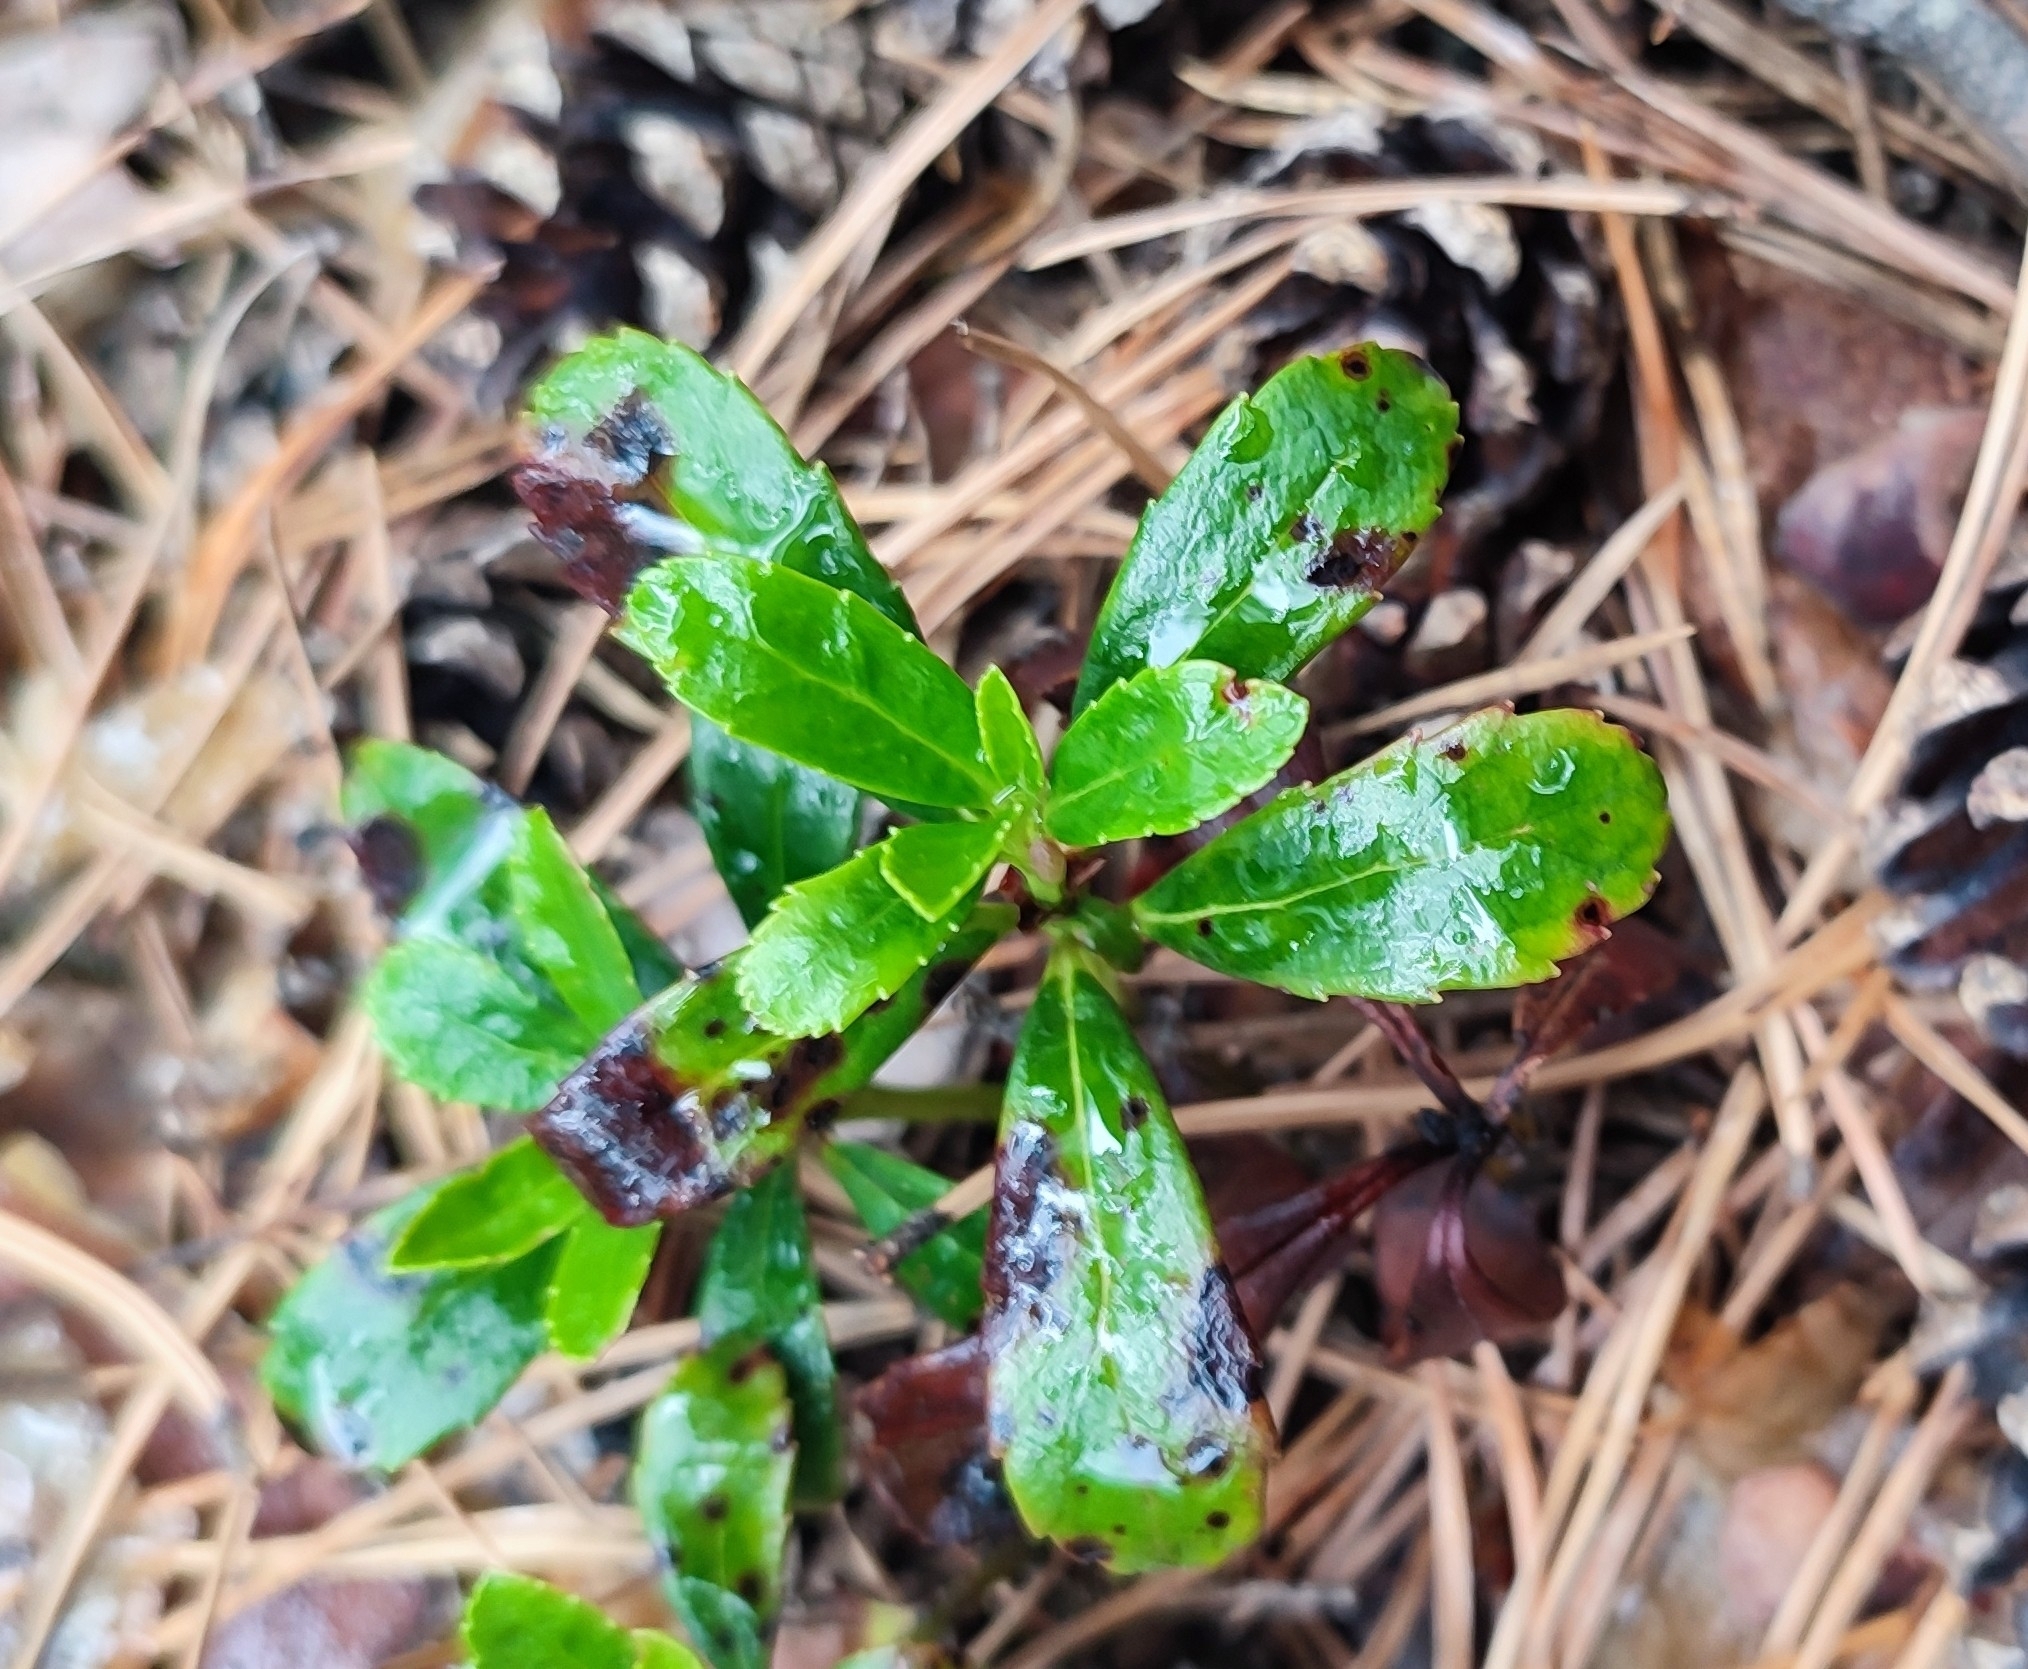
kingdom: Plantae
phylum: Tracheophyta
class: Magnoliopsida
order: Ericales
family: Ericaceae
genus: Chimaphila
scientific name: Chimaphila umbellata
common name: Pipsissewa
